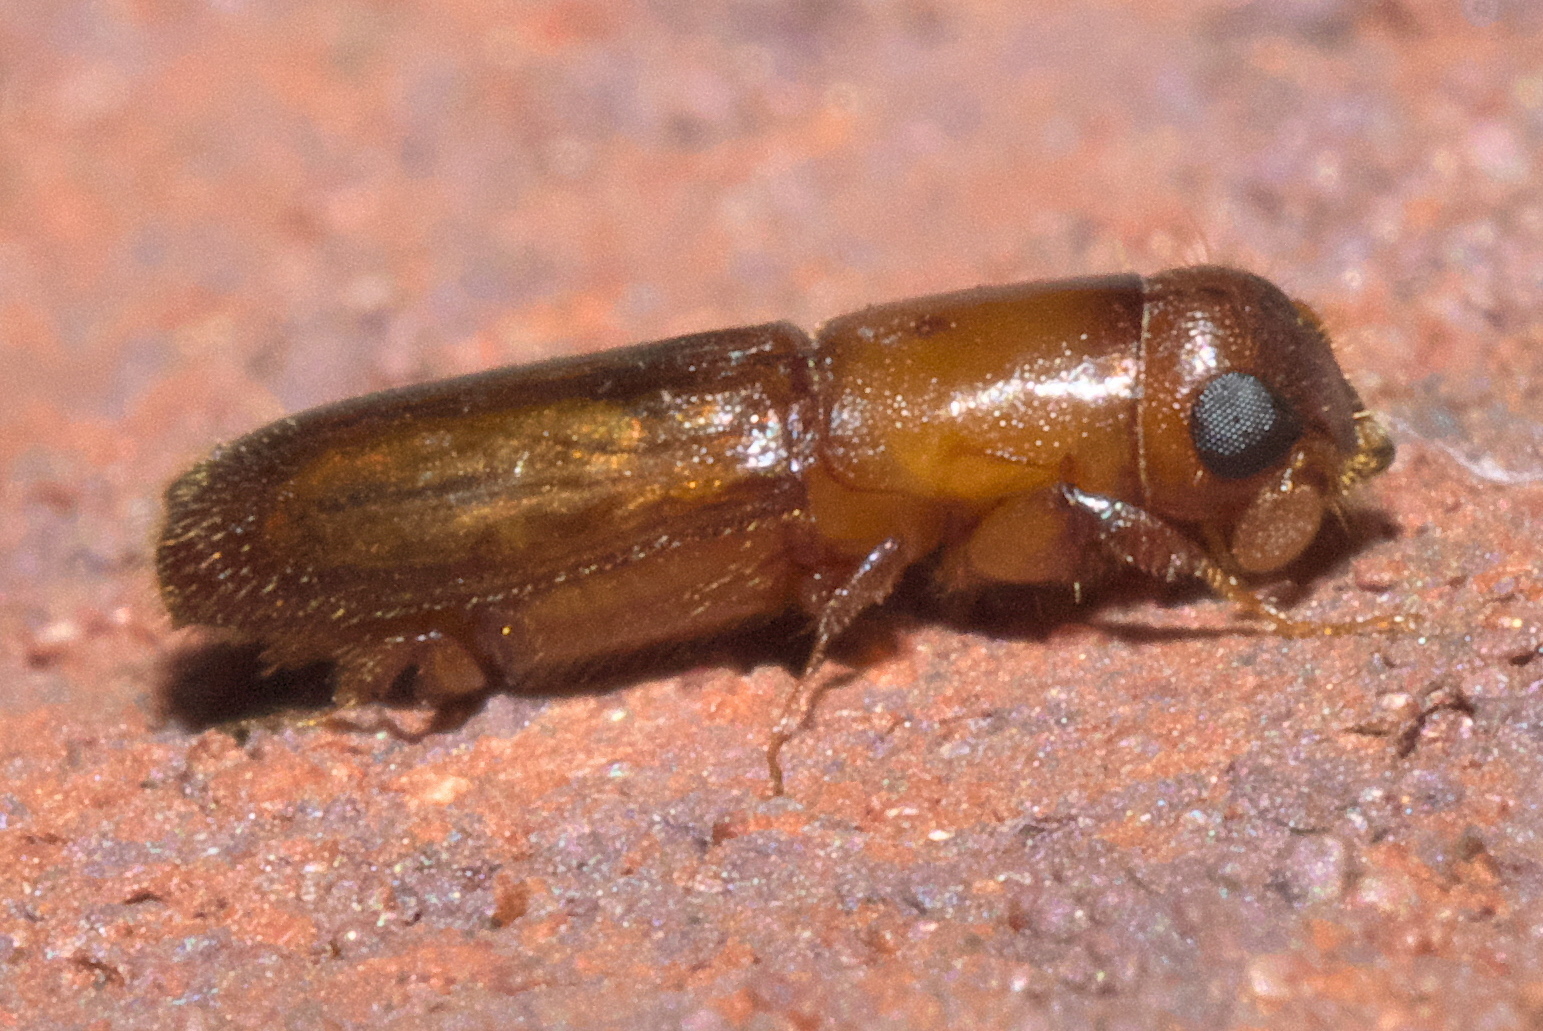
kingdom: Animalia
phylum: Arthropoda
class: Insecta
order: Coleoptera
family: Curculionidae
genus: Oxoplatypus
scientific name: Oxoplatypus quadridentatus
